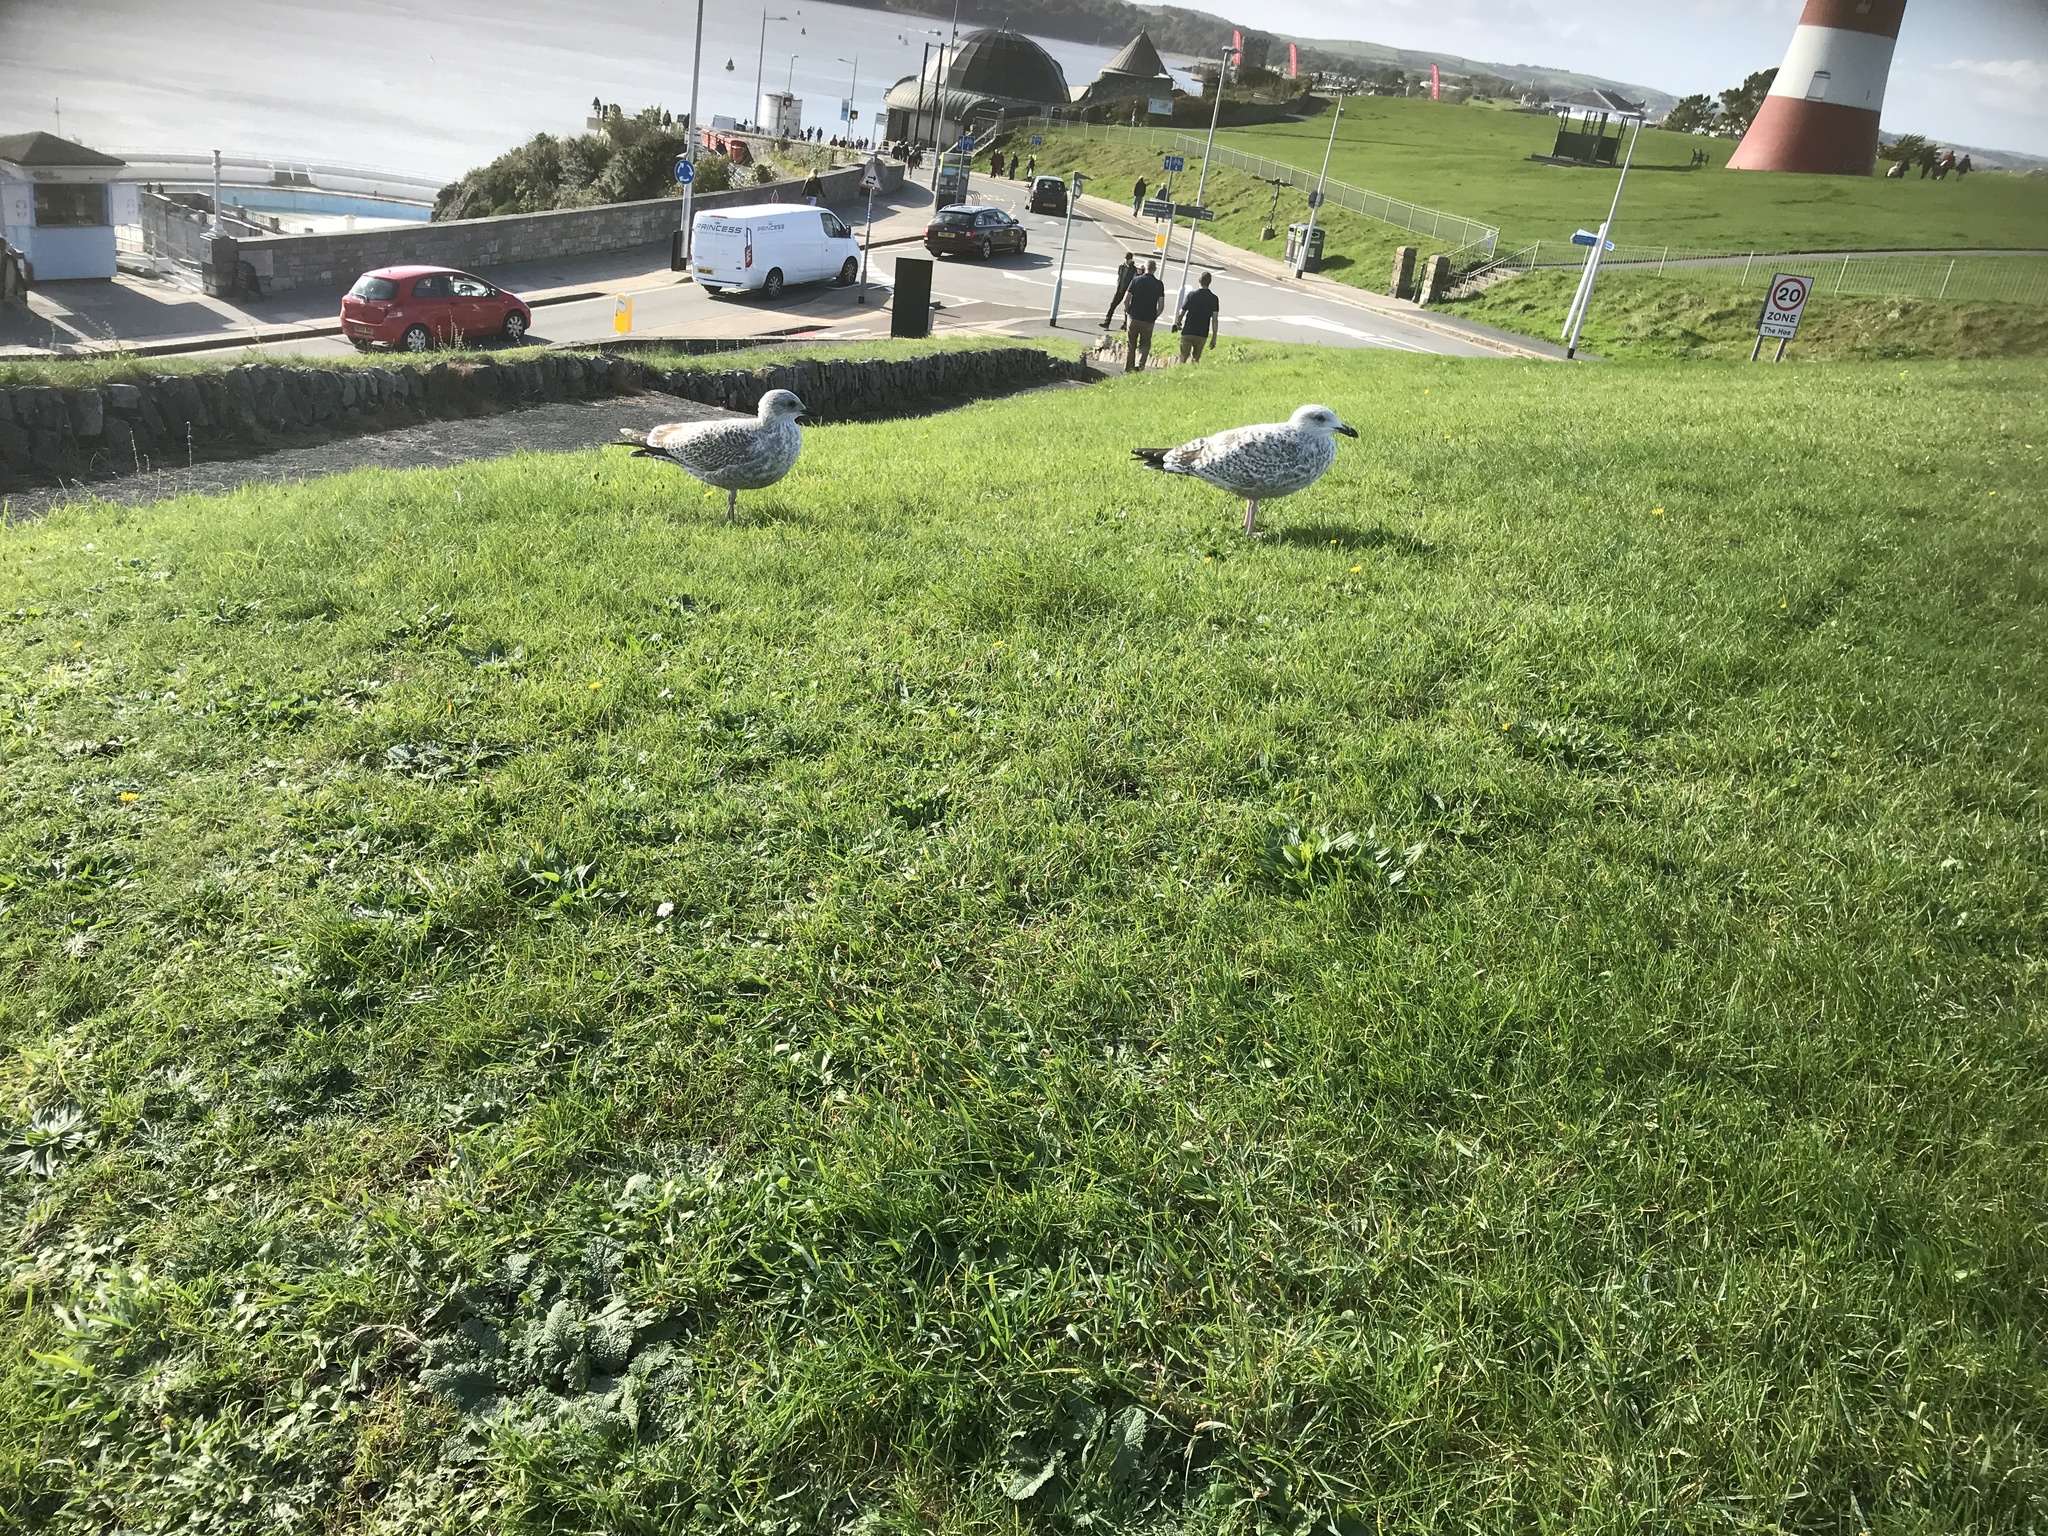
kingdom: Animalia
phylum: Chordata
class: Aves
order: Charadriiformes
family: Laridae
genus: Larus
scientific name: Larus argentatus
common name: Herring gull
